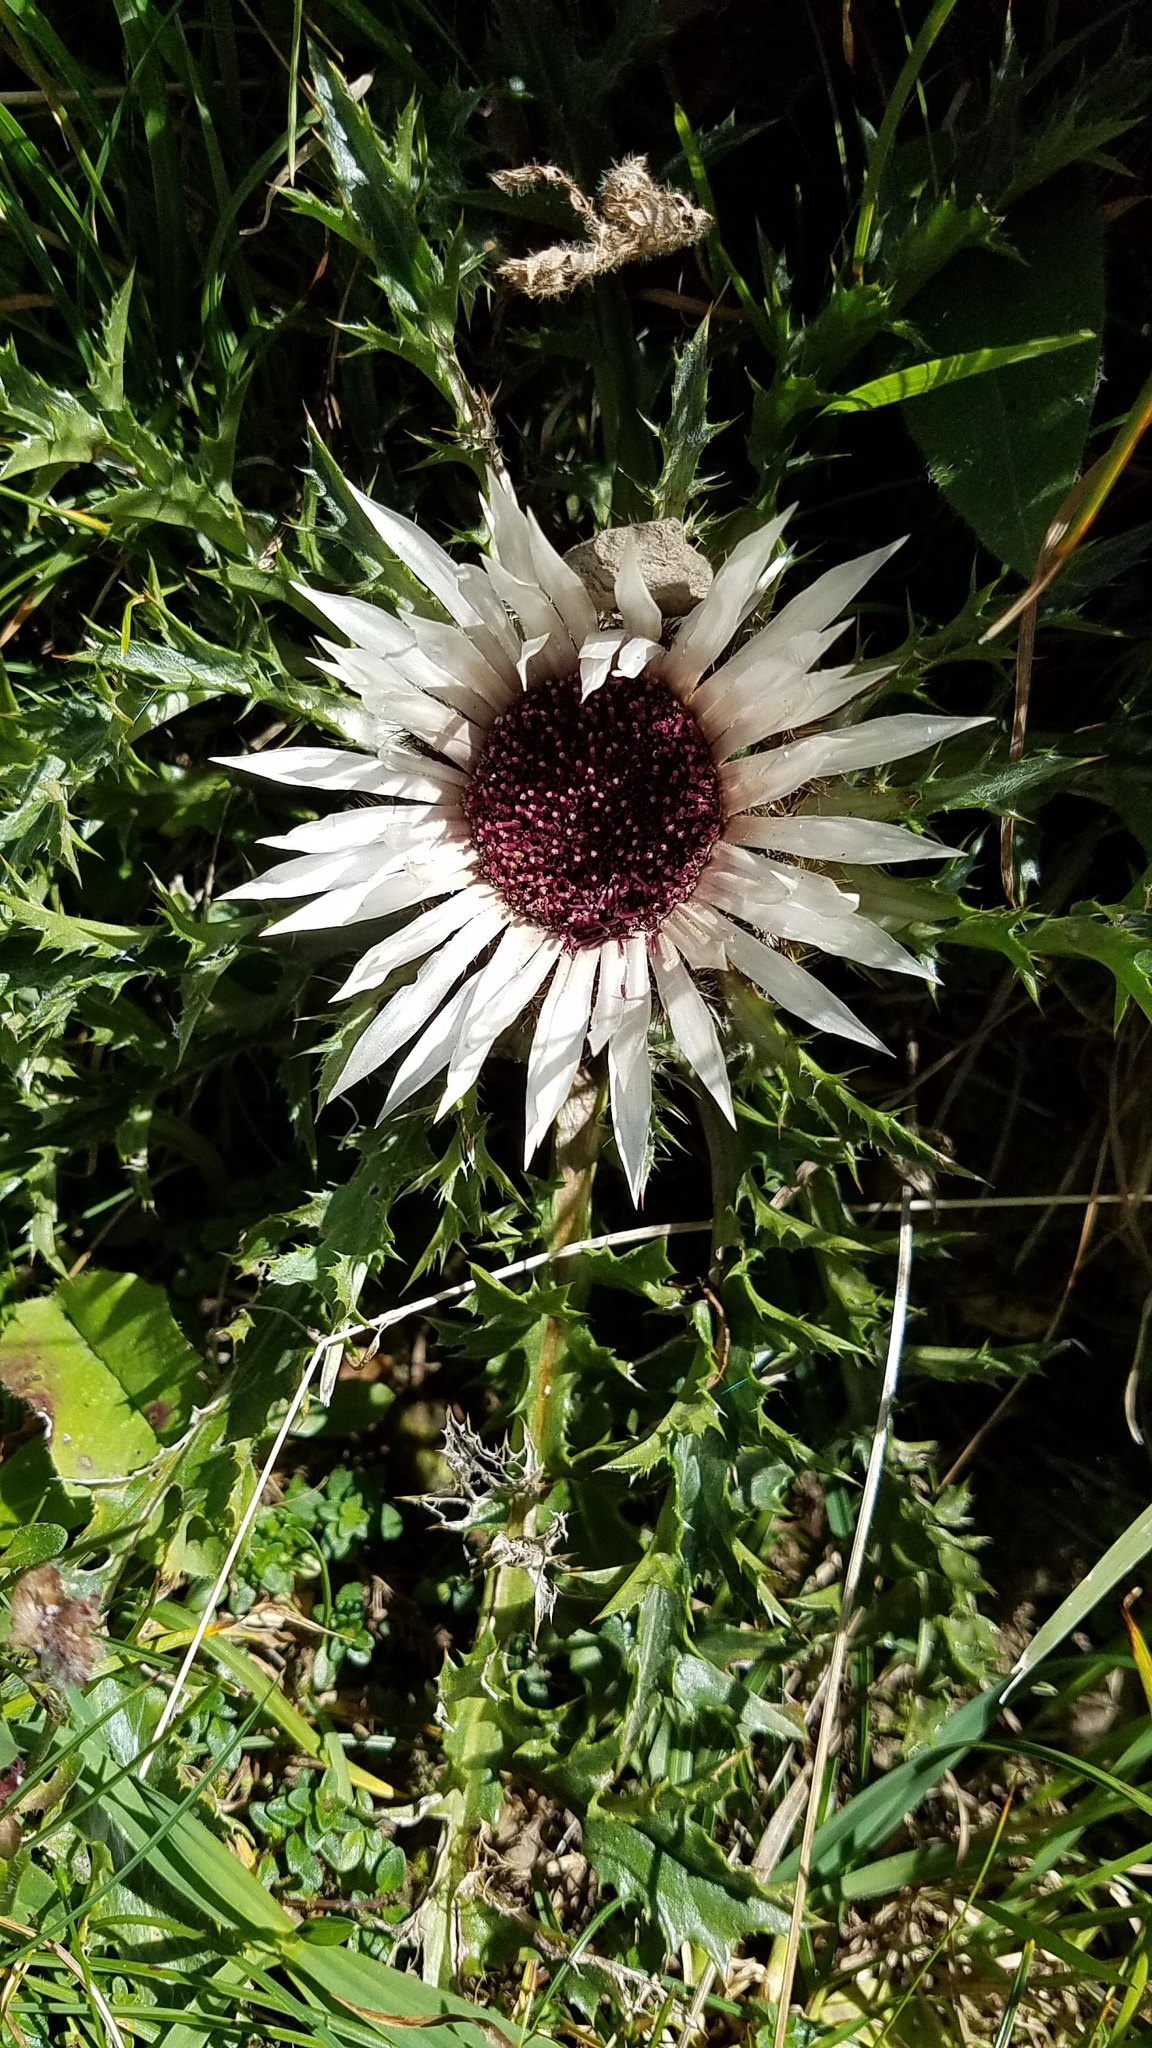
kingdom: Plantae
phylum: Tracheophyta
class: Magnoliopsida
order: Asterales
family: Asteraceae
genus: Carlina
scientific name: Carlina acaulis
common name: Stemless carline thistle
